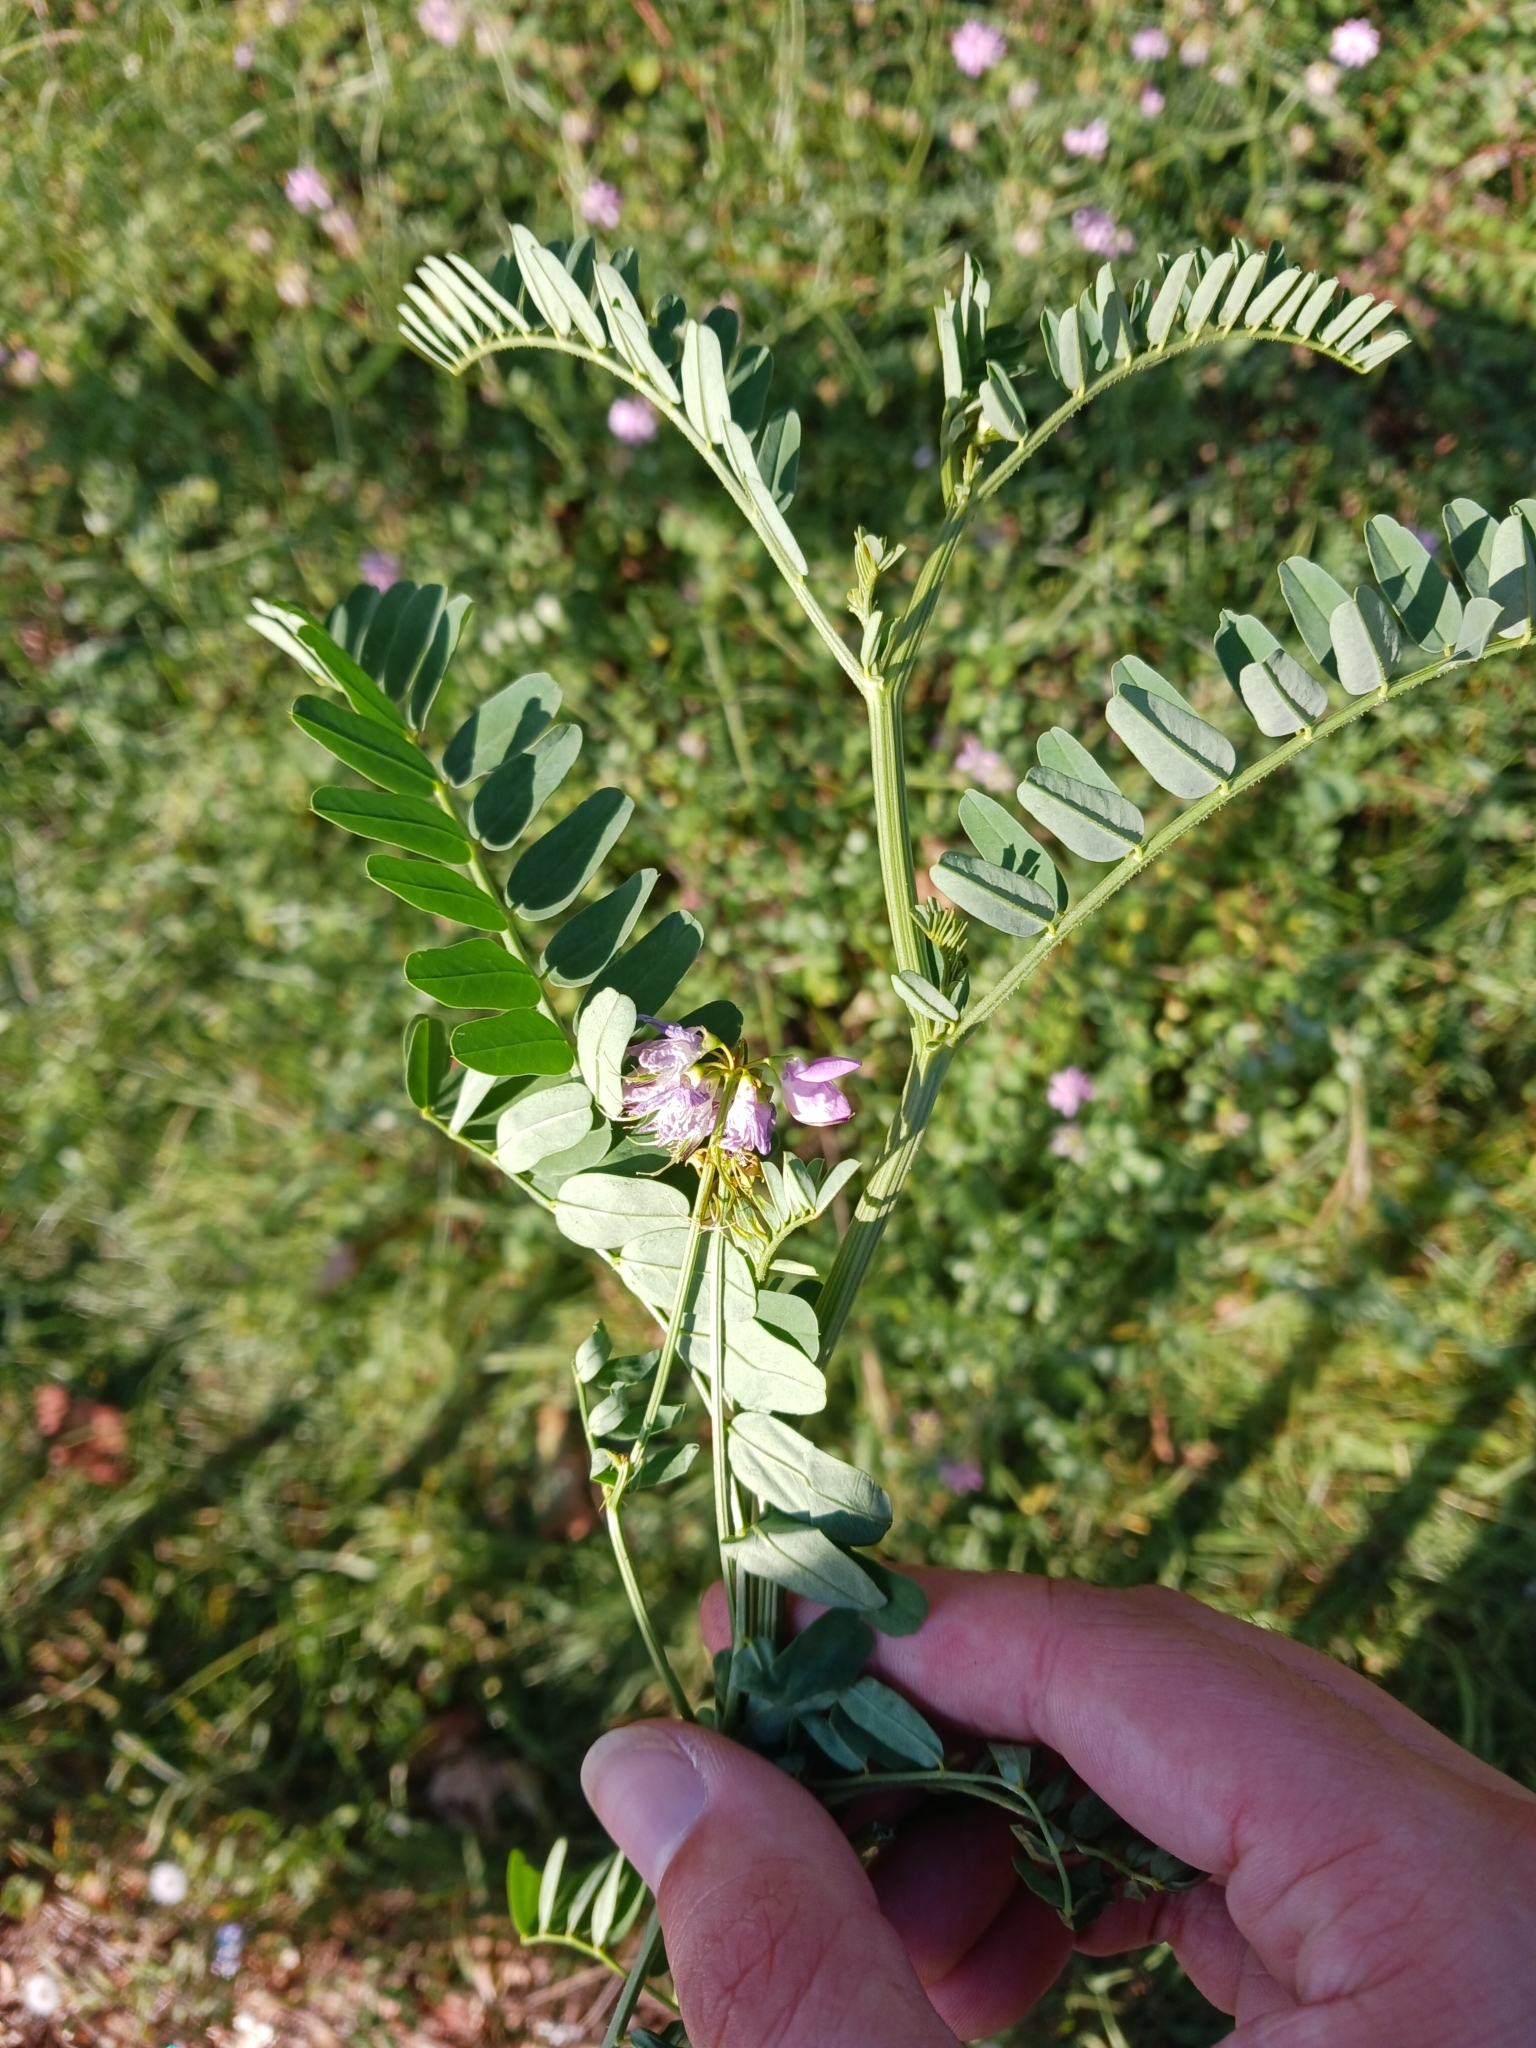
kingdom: Plantae
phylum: Tracheophyta
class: Magnoliopsida
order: Fabales
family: Fabaceae
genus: Coronilla
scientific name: Coronilla varia
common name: Crownvetch
